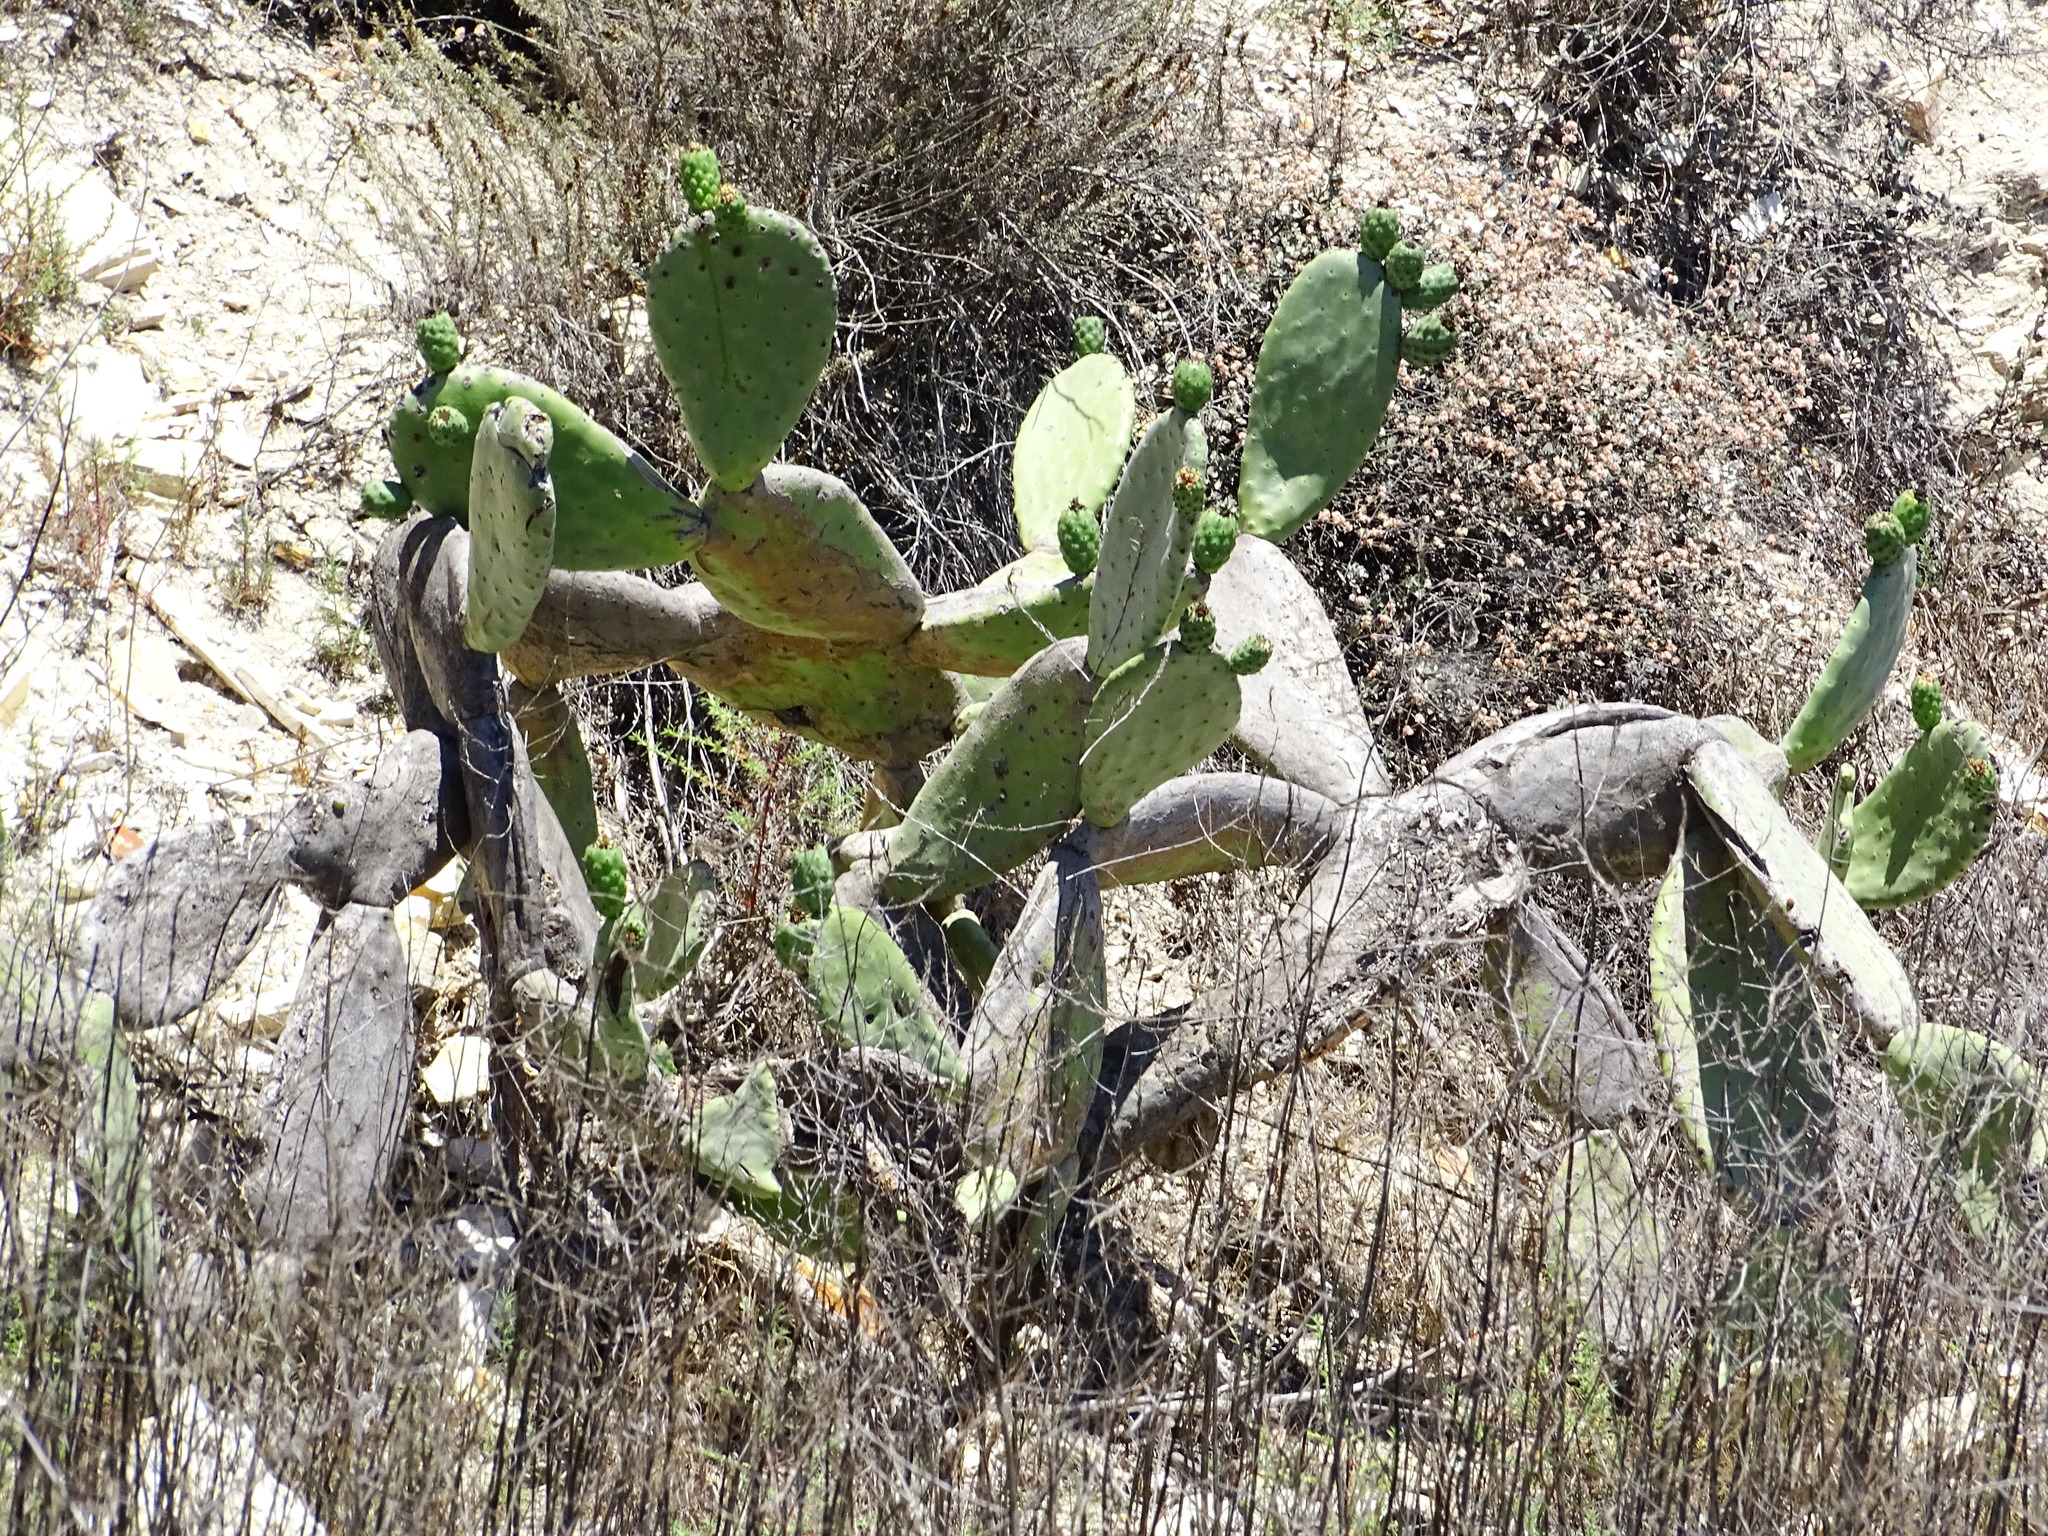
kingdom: Plantae
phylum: Tracheophyta
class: Magnoliopsida
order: Caryophyllales
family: Cactaceae
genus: Opuntia
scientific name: Opuntia ficus-indica
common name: Barbary fig
